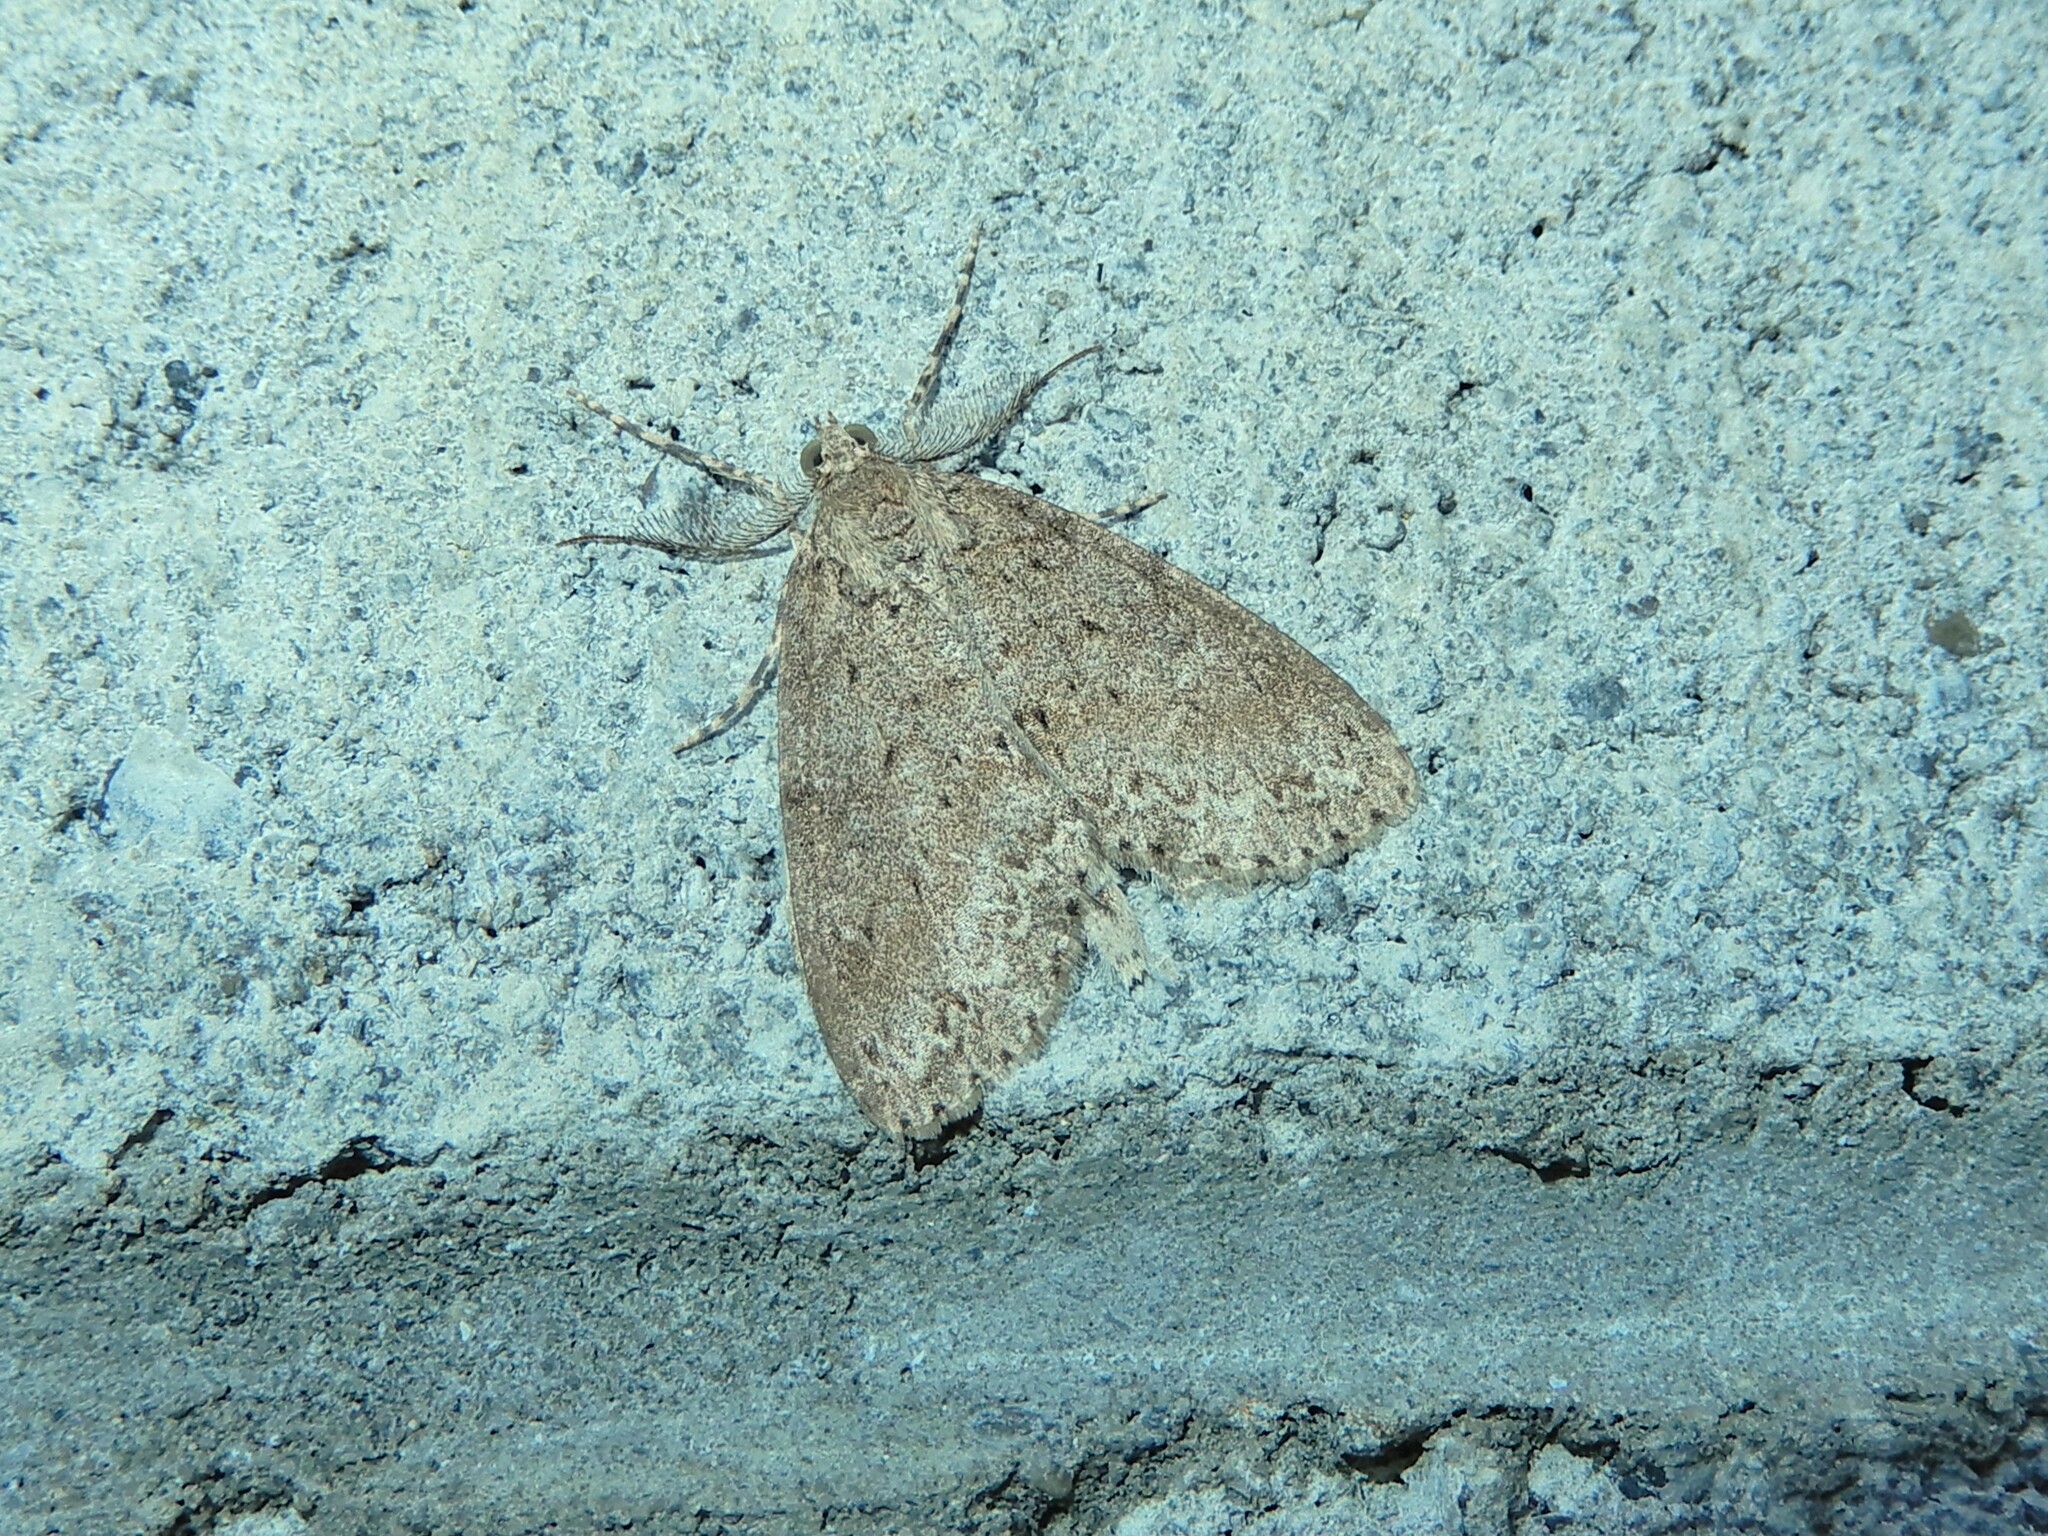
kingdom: Animalia
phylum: Arthropoda
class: Insecta
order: Lepidoptera
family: Geometridae
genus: Pseudocoremia
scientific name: Pseudocoremia fenerata
